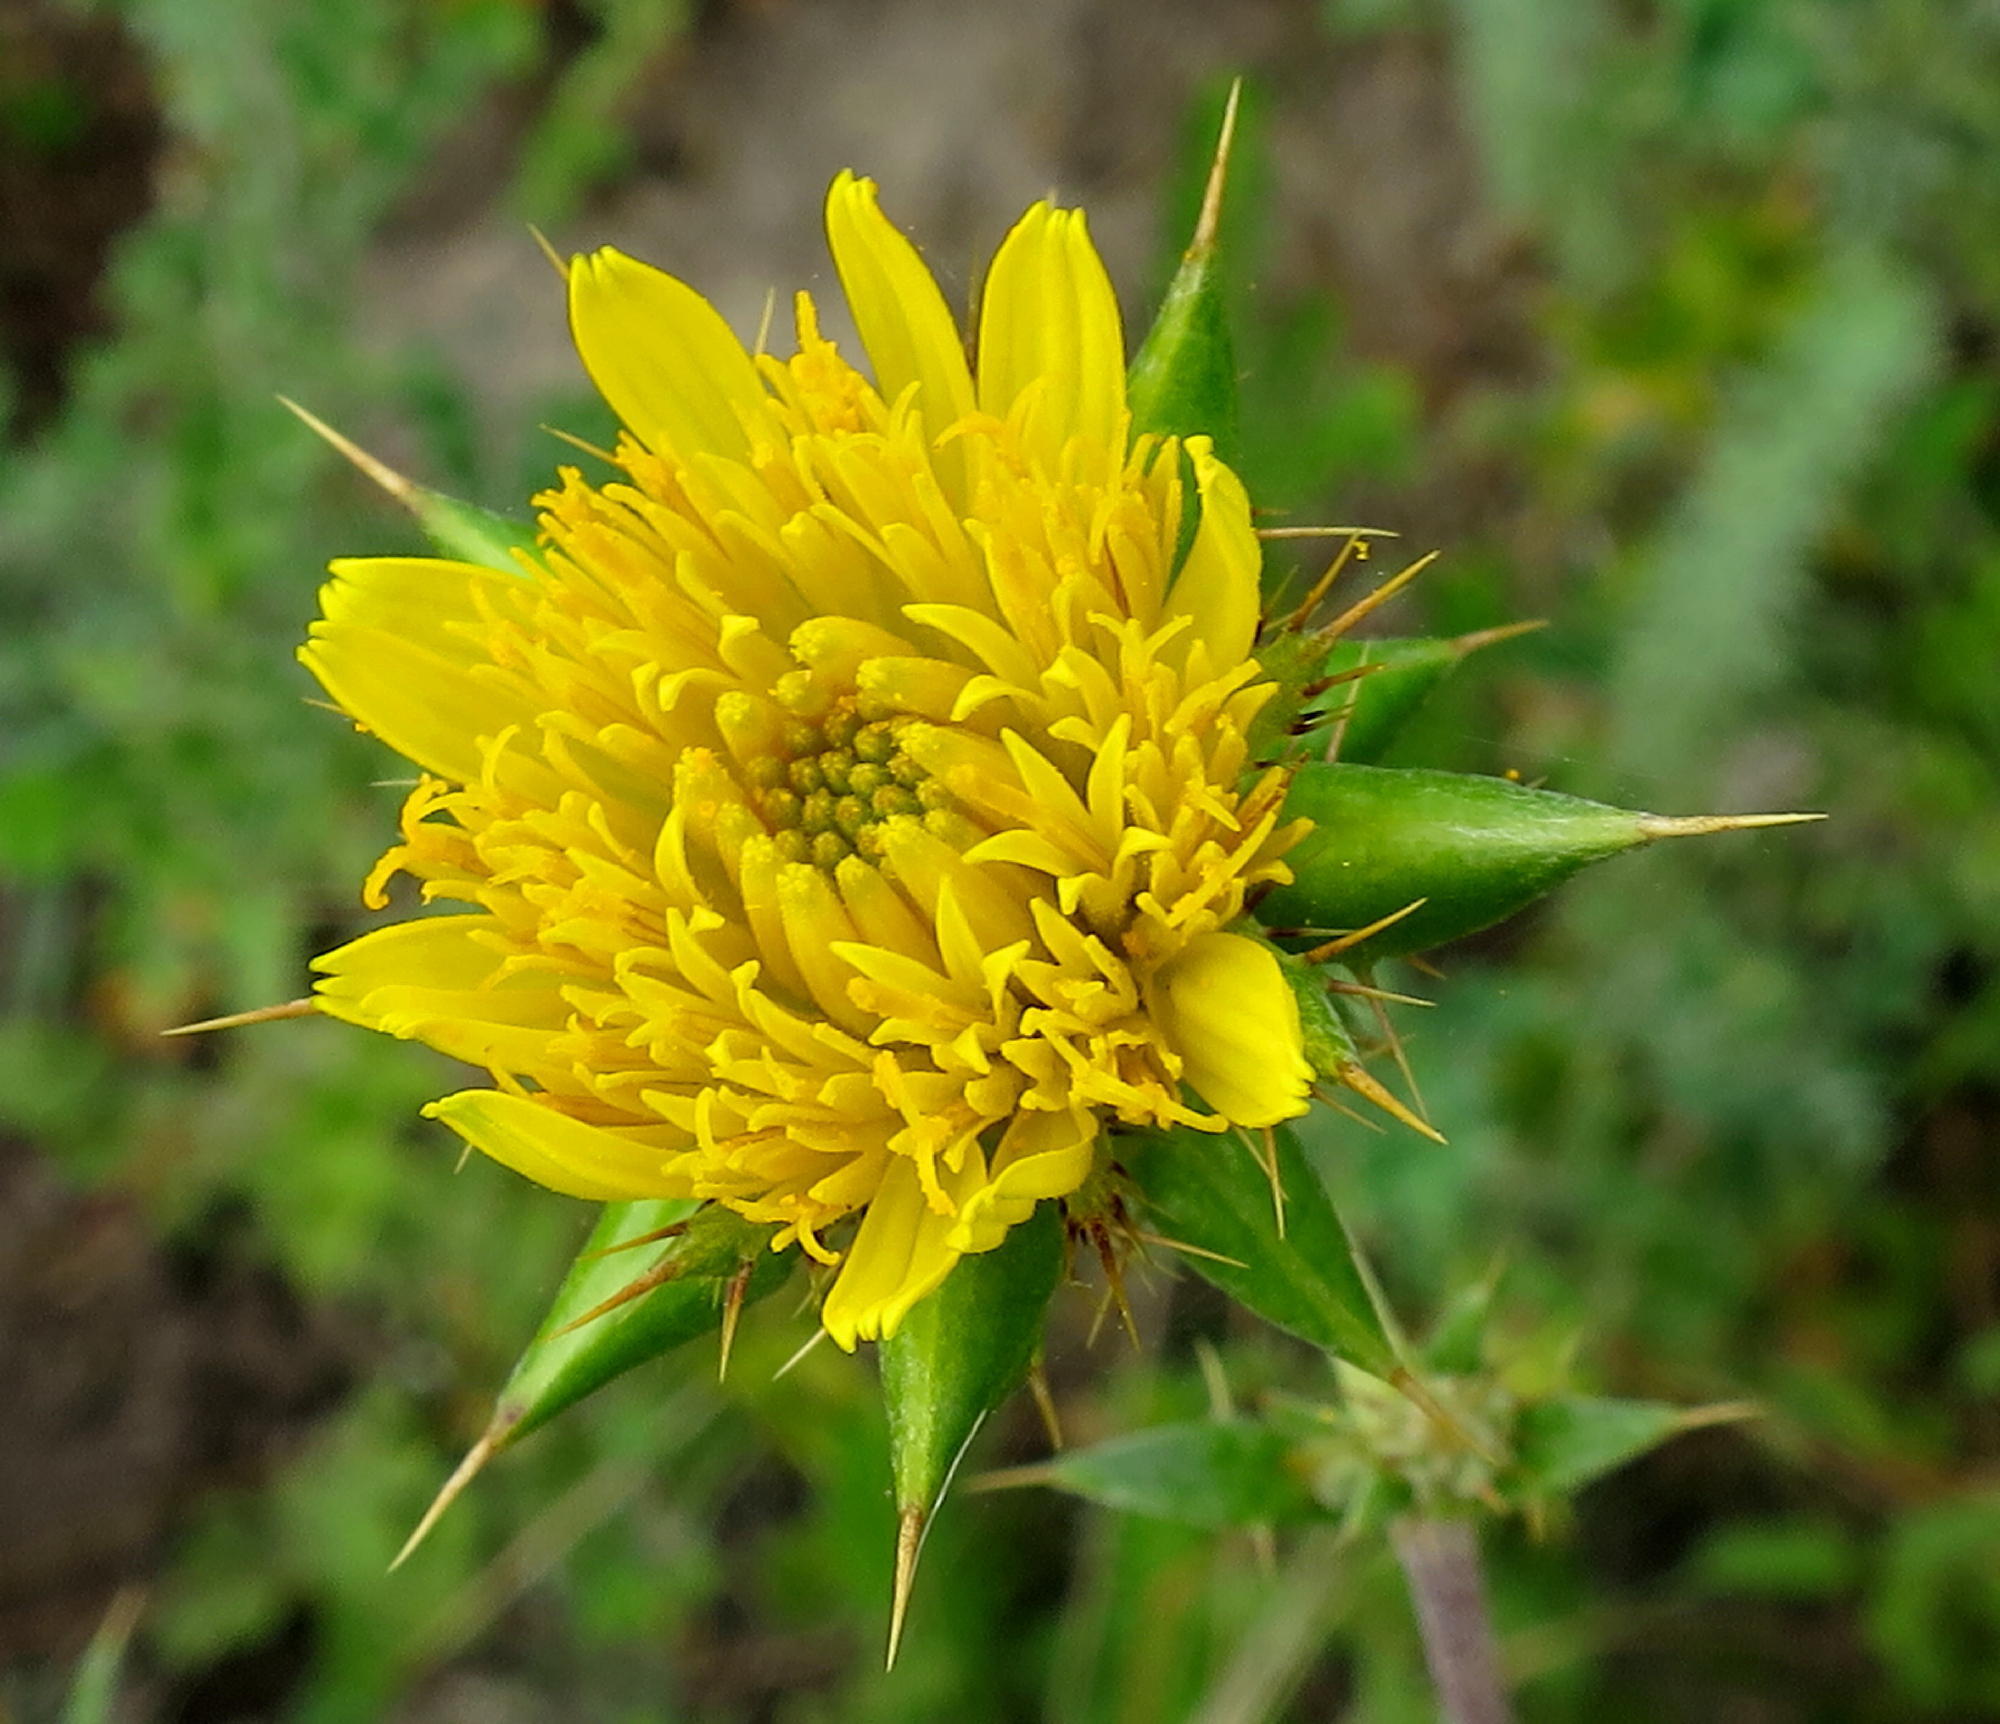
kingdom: Plantae
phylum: Tracheophyta
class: Magnoliopsida
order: Asterales
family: Asteraceae
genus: Berkheya
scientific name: Berkheya heterophylla
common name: Prickly gousblom
